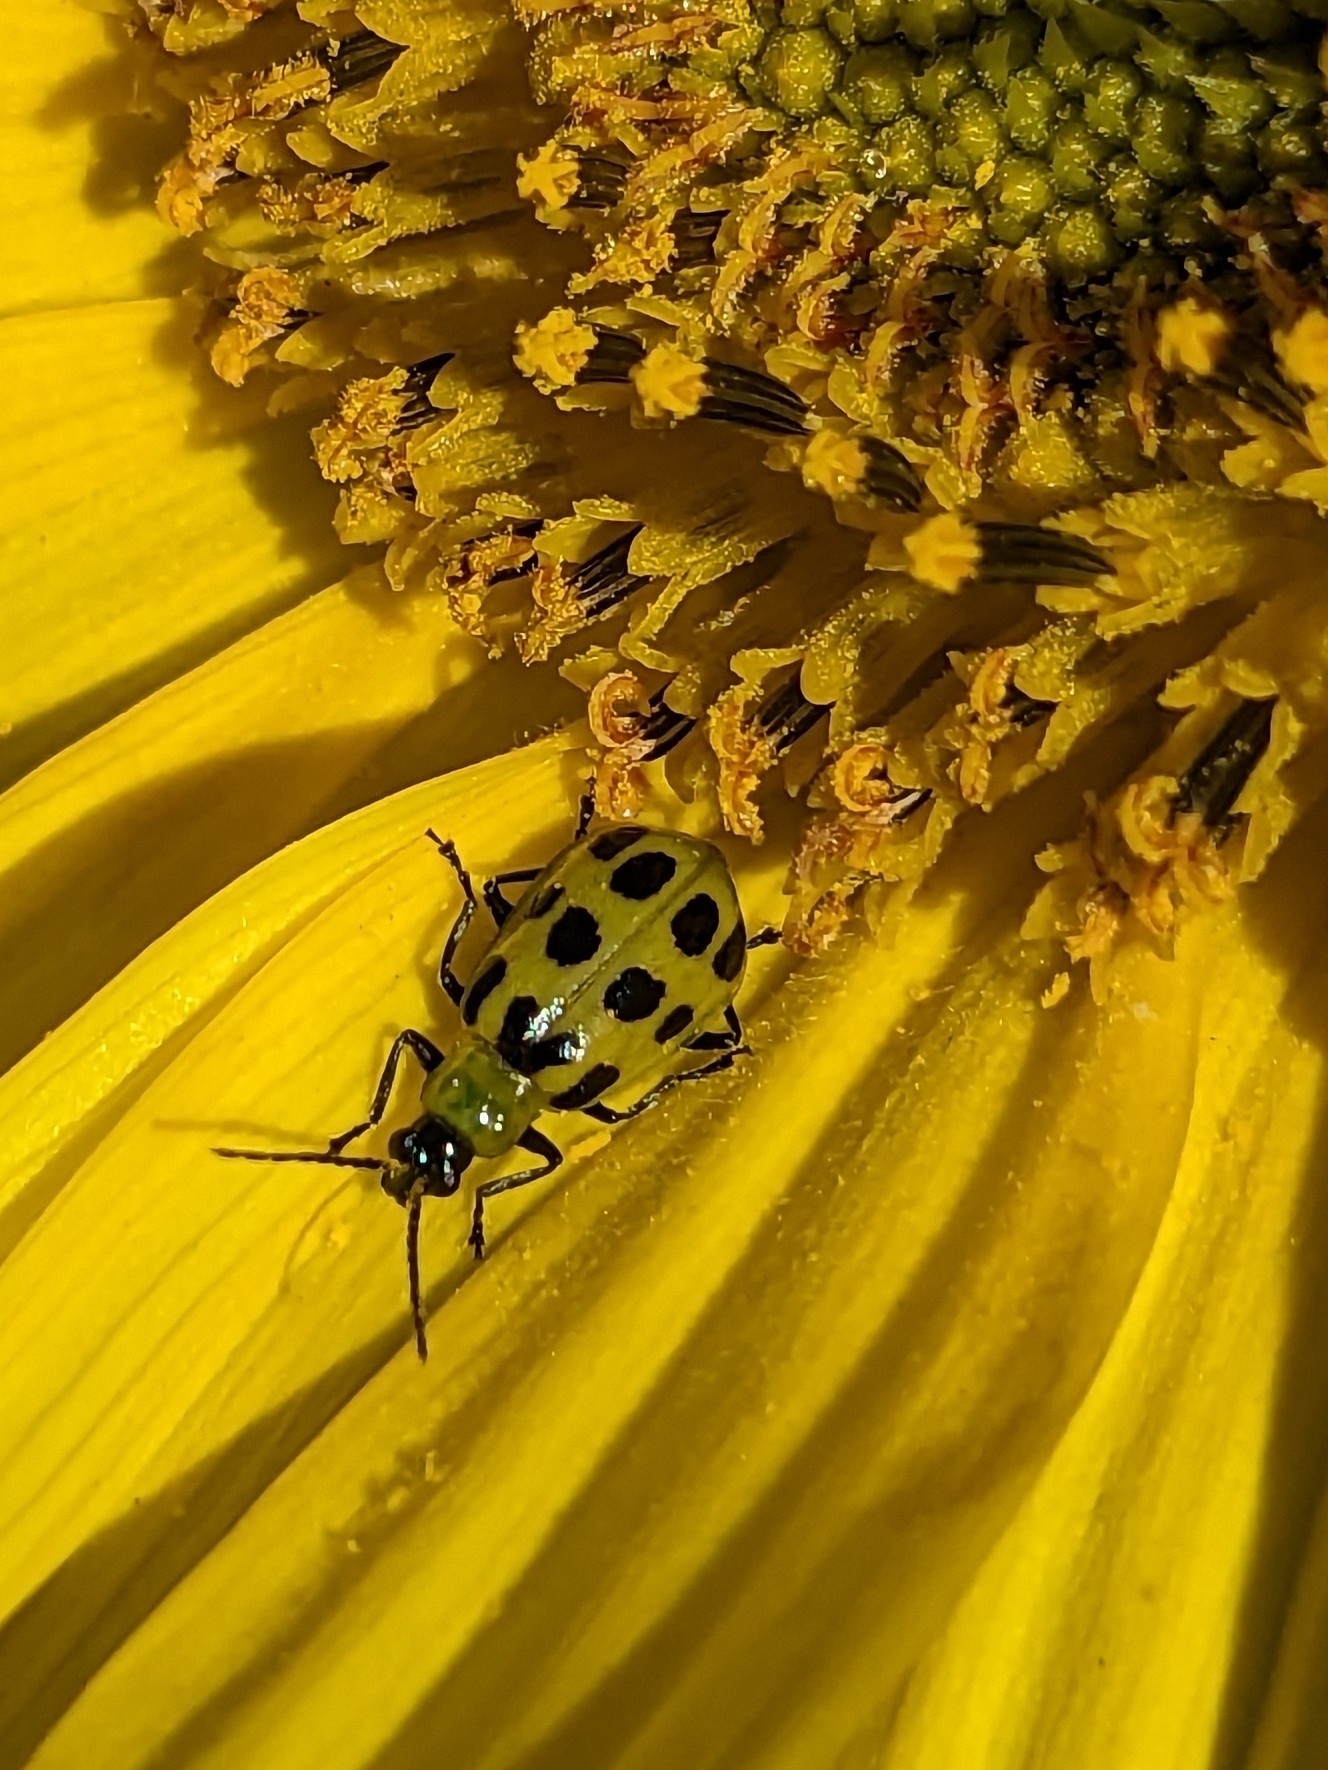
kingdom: Animalia
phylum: Arthropoda
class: Insecta
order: Coleoptera
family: Chrysomelidae
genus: Diabrotica
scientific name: Diabrotica undecimpunctata
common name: Spotted cucumber beetle
